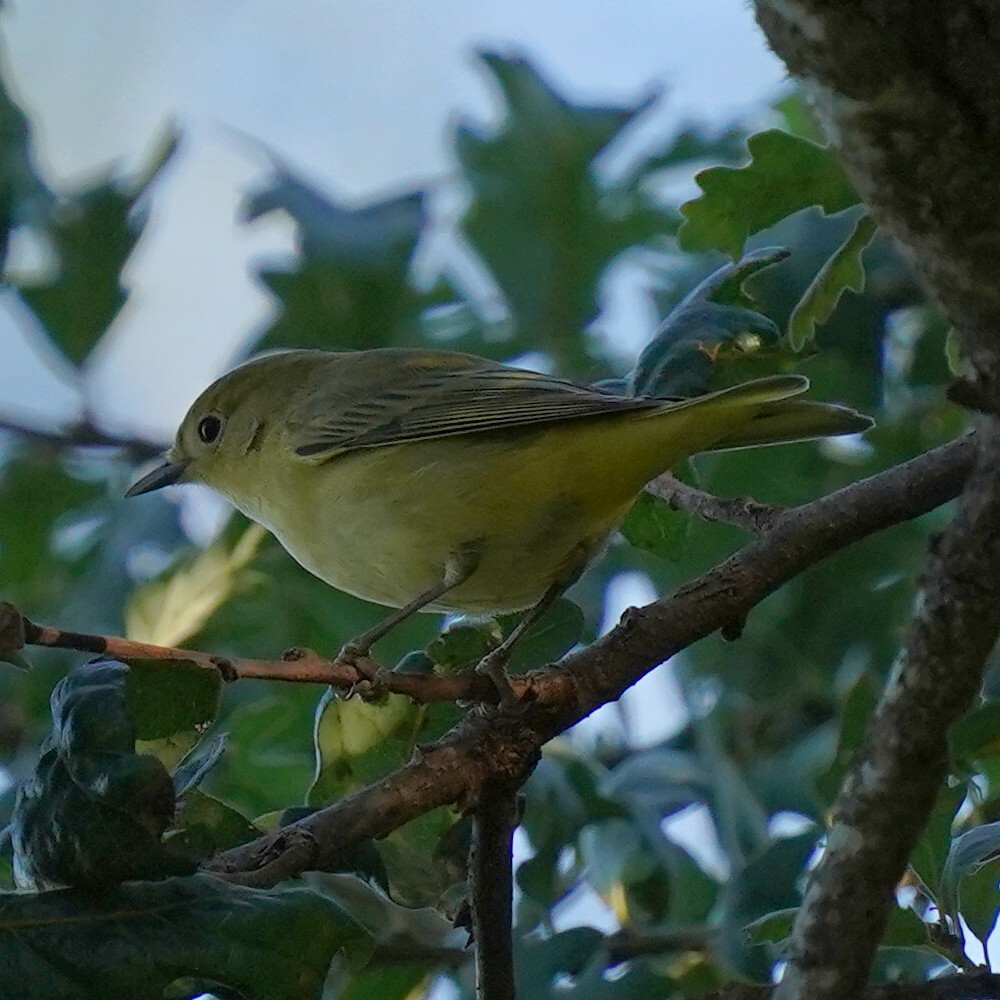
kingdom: Animalia
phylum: Chordata
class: Aves
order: Passeriformes
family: Parulidae
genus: Setophaga
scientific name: Setophaga petechia
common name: Yellow warbler
